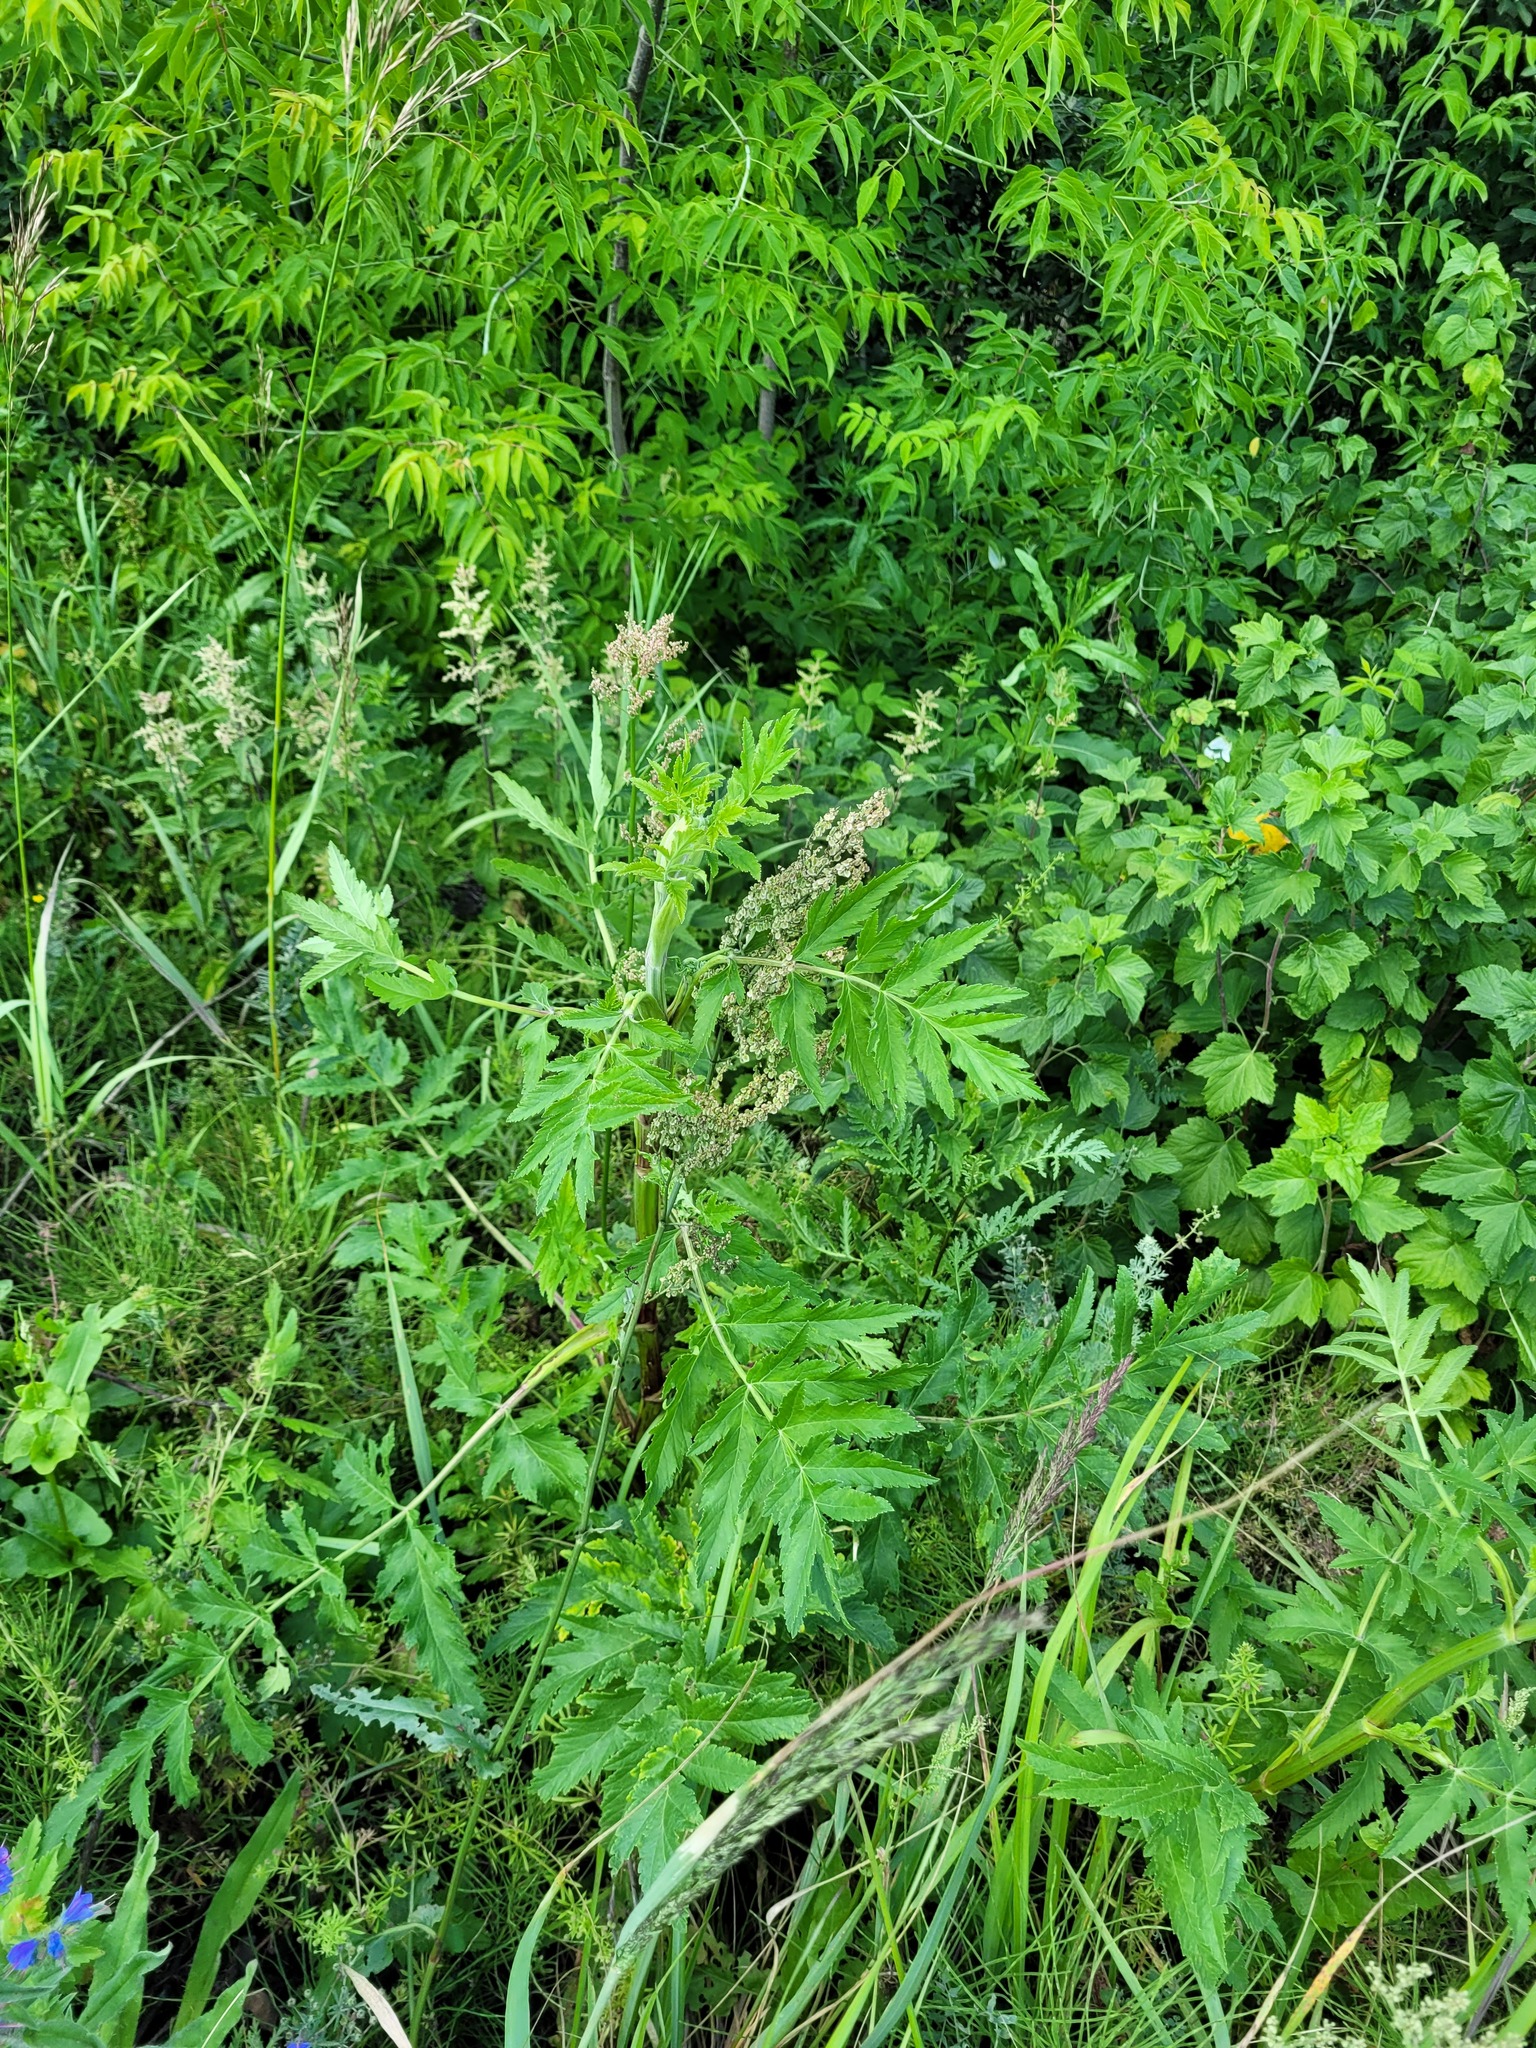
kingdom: Plantae
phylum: Tracheophyta
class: Magnoliopsida
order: Apiales
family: Apiaceae
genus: Pastinaca
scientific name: Pastinaca sativa
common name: Wild parsnip
